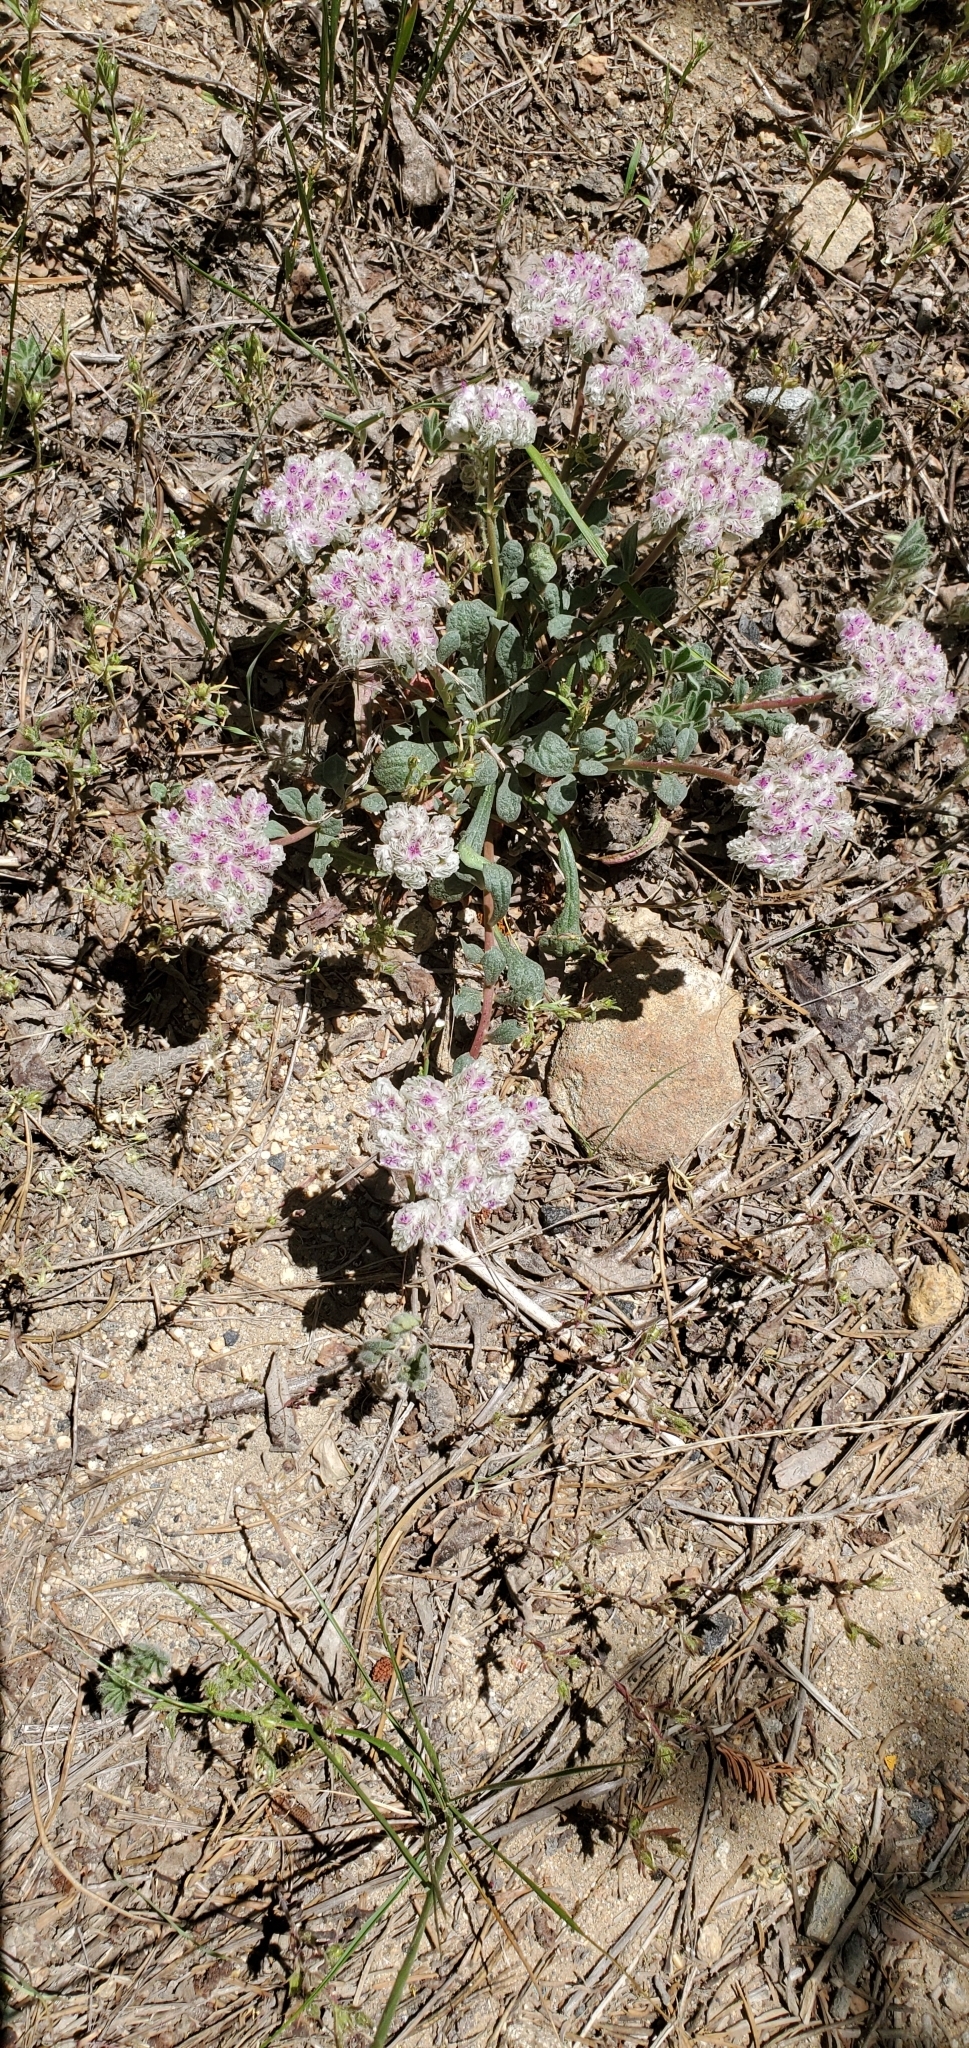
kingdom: Plantae
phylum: Tracheophyta
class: Magnoliopsida
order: Caryophyllales
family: Montiaceae
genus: Calyptridium
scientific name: Calyptridium monospermum
